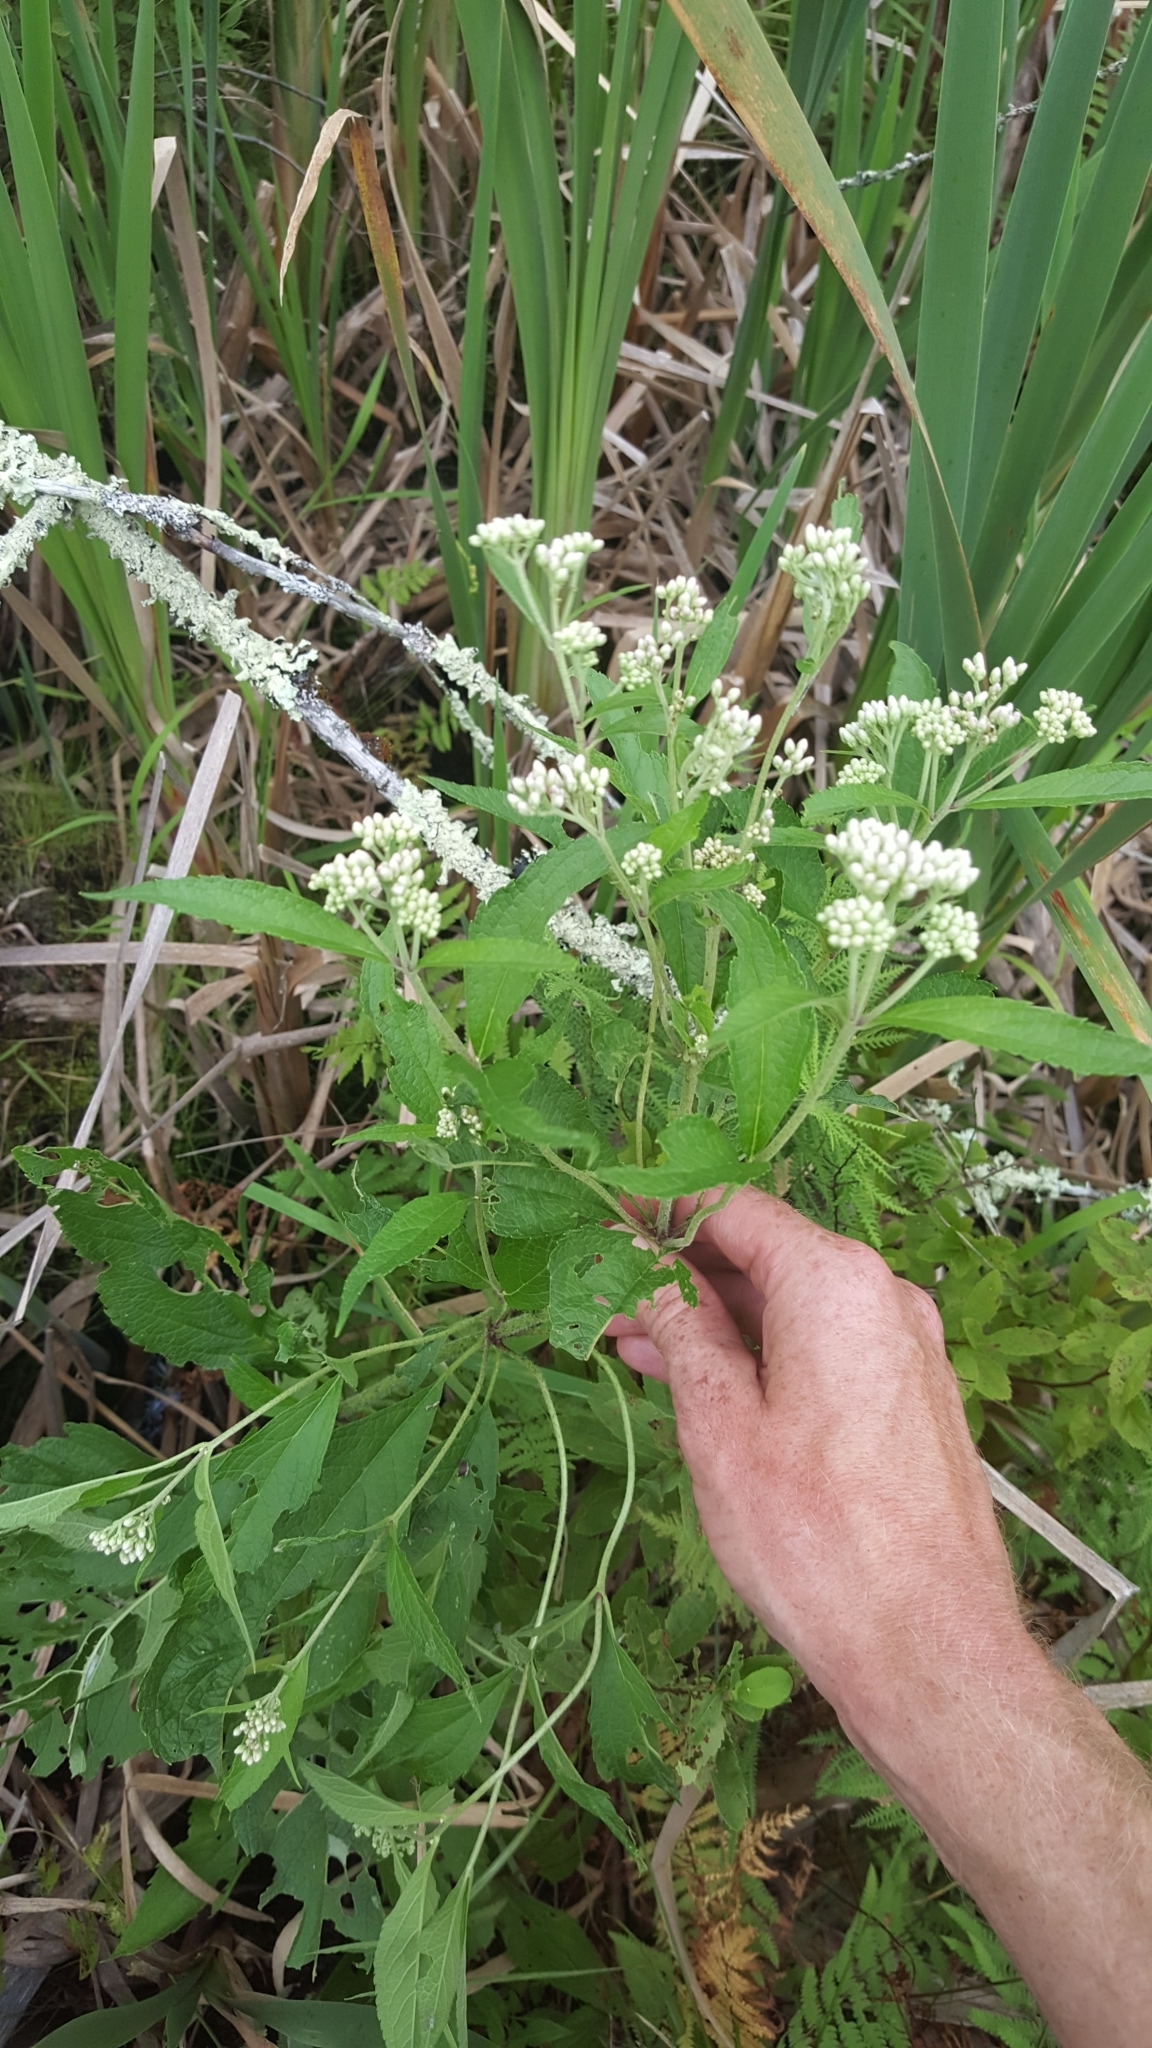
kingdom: Plantae
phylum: Tracheophyta
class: Magnoliopsida
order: Asterales
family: Asteraceae
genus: Eupatorium
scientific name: Eupatorium serotinum
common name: Late boneset
